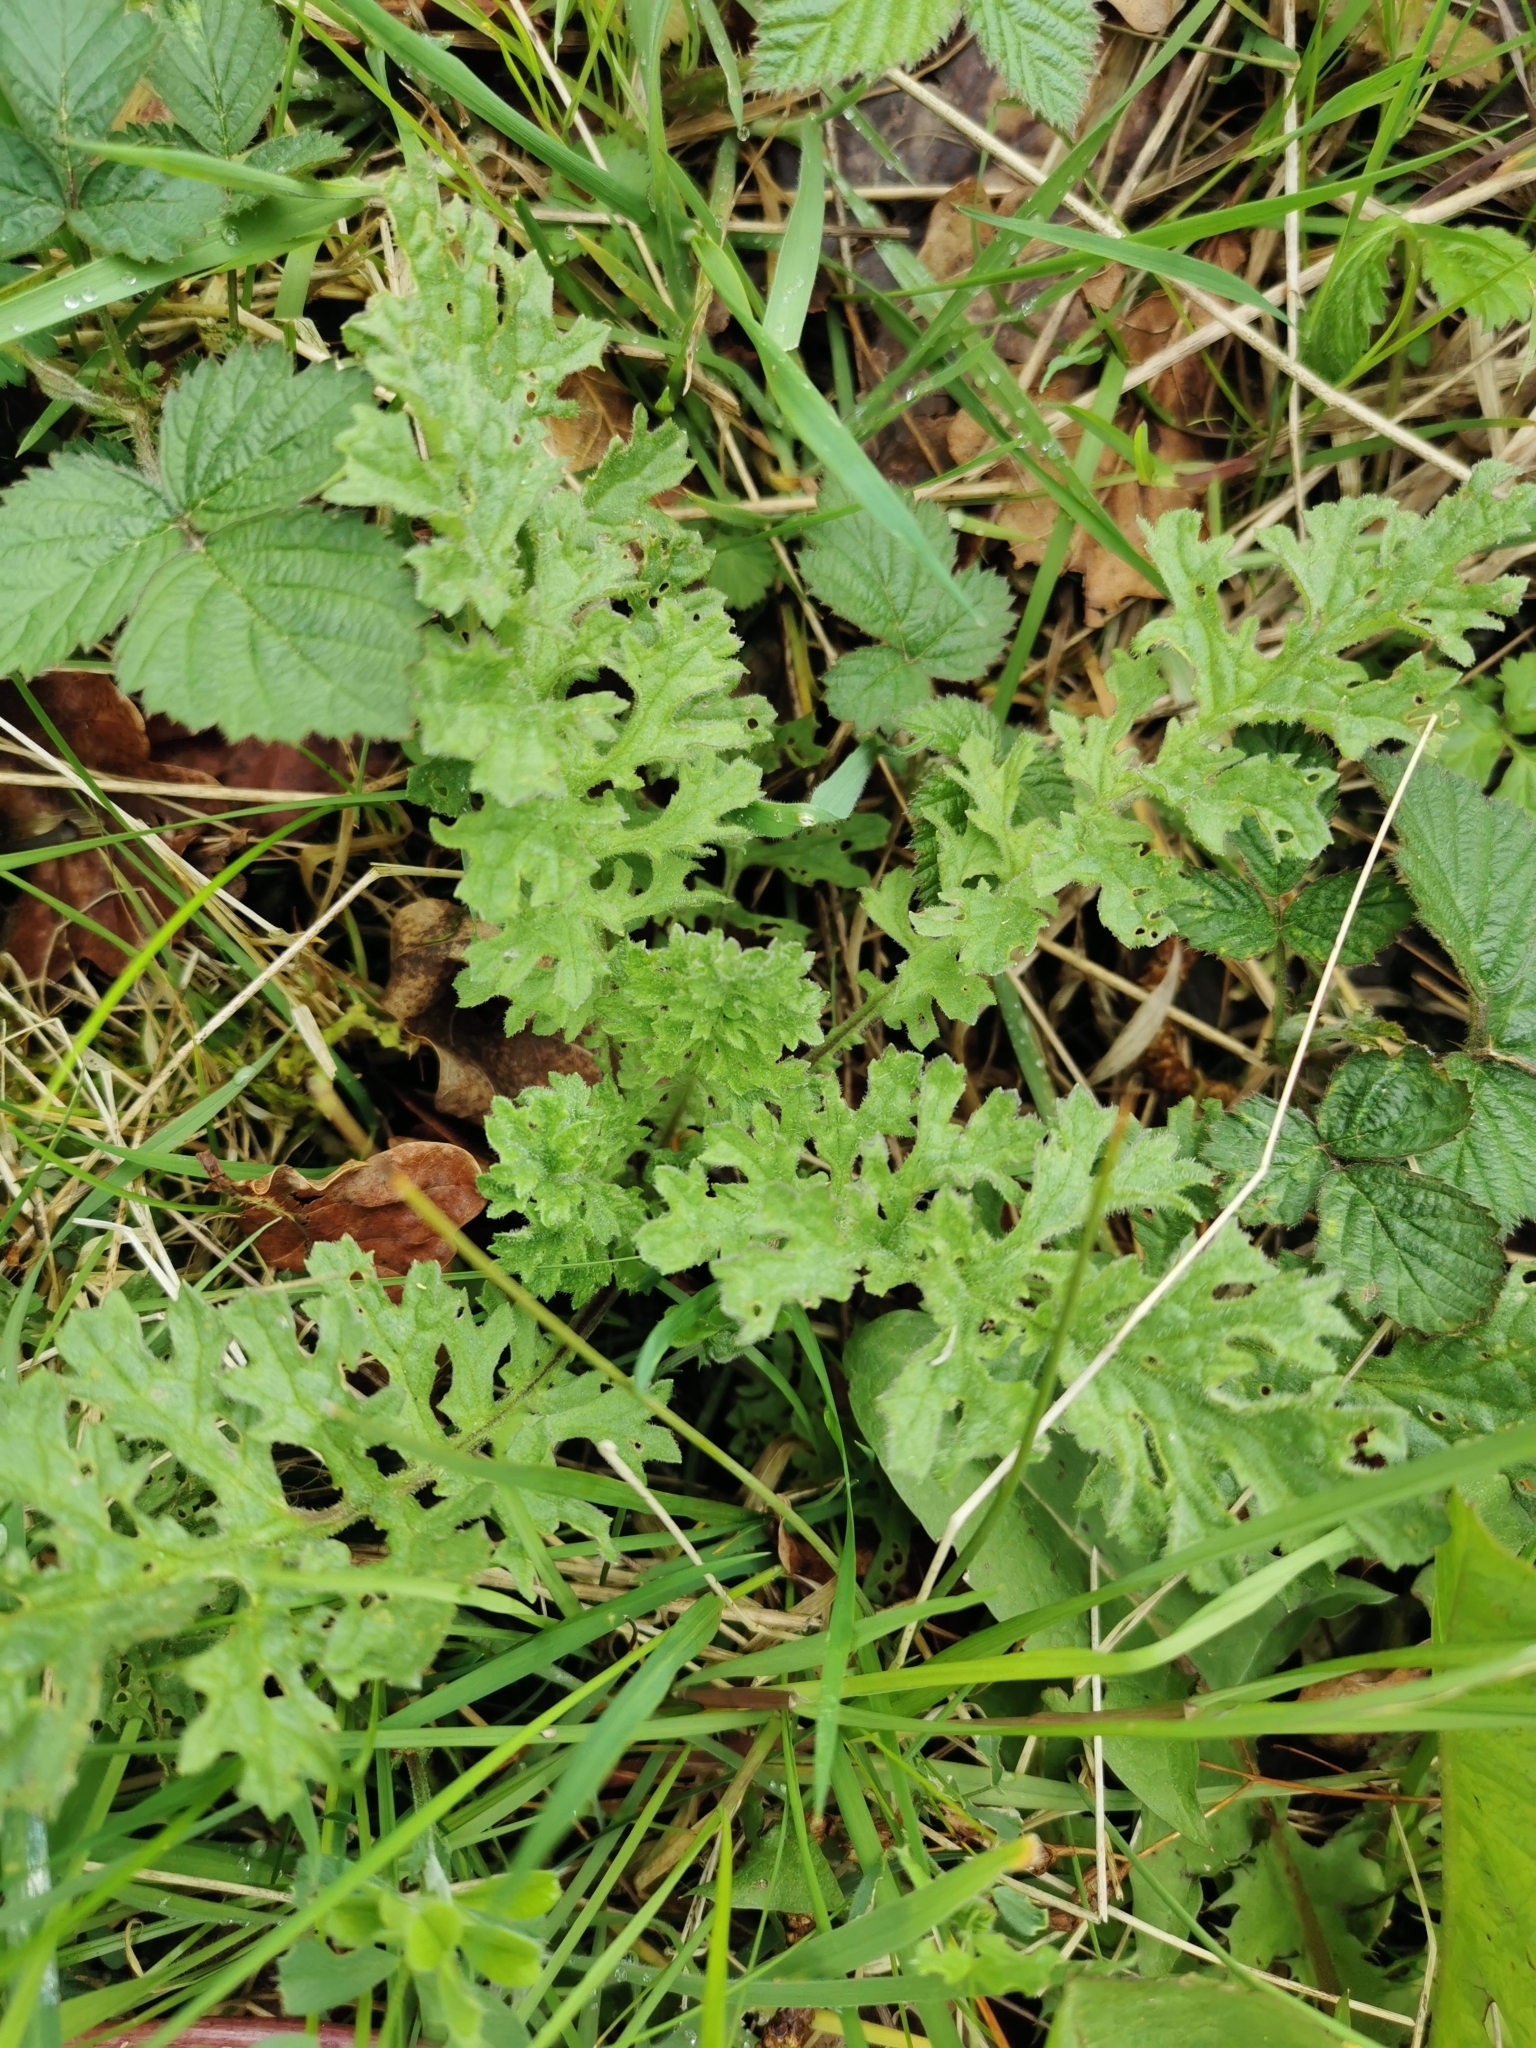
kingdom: Plantae
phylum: Tracheophyta
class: Magnoliopsida
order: Asterales
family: Asteraceae
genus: Jacobaea
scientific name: Jacobaea vulgaris
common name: Stinking willie
